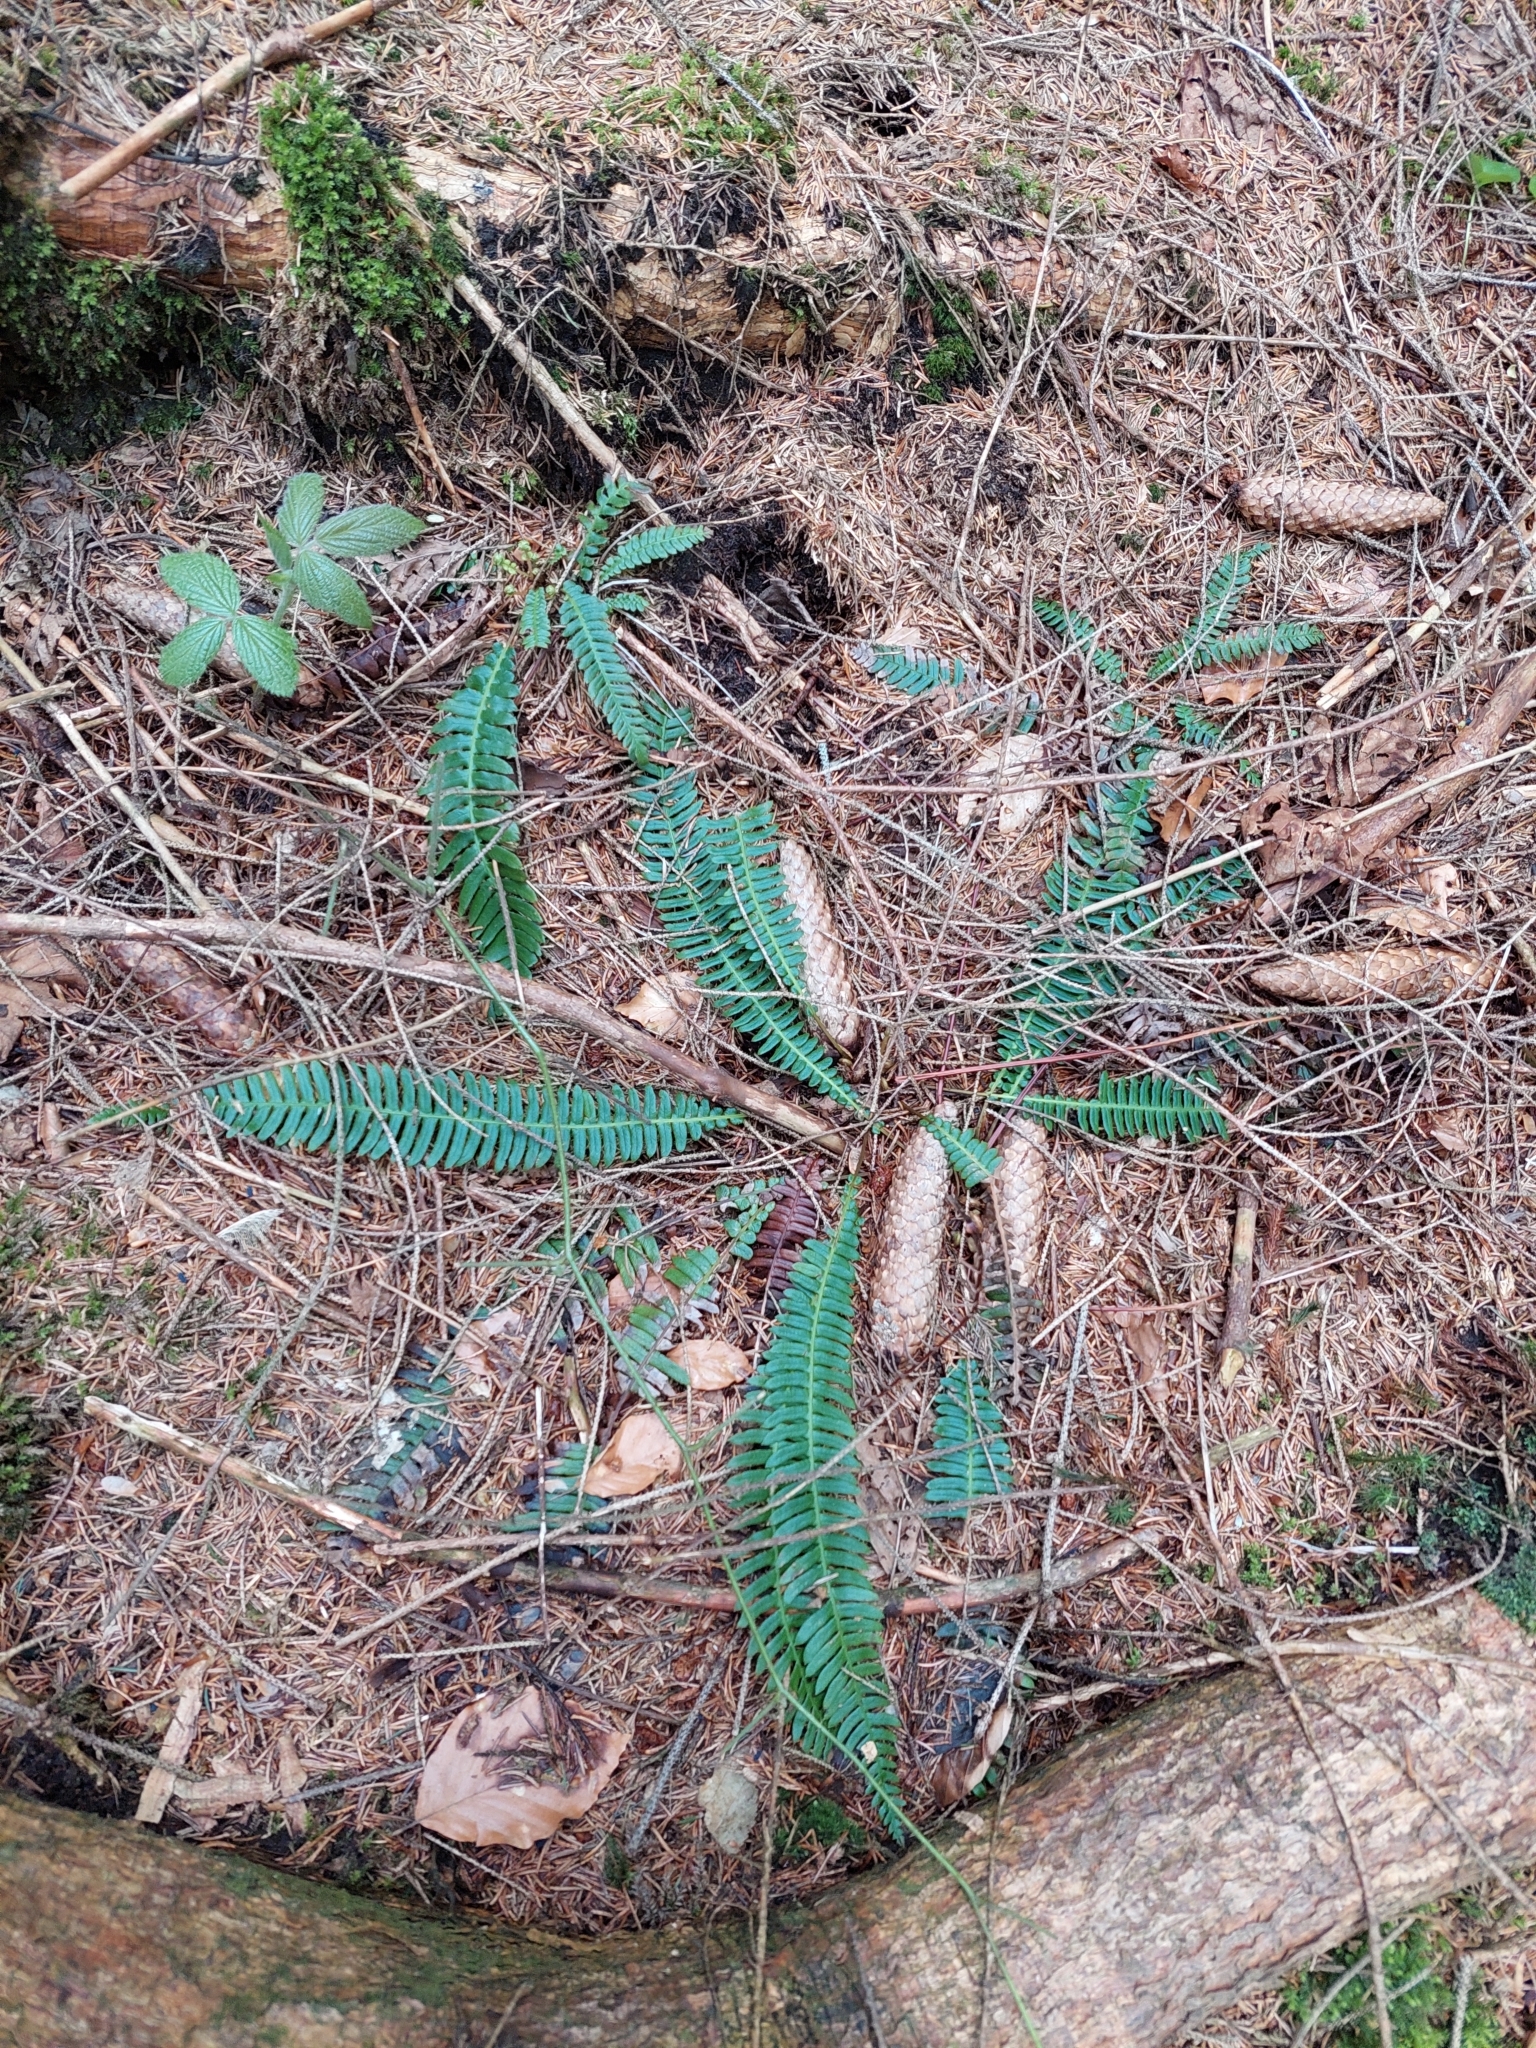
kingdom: Plantae
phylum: Tracheophyta
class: Polypodiopsida
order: Polypodiales
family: Blechnaceae
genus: Struthiopteris
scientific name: Struthiopteris spicant
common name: Deer fern
